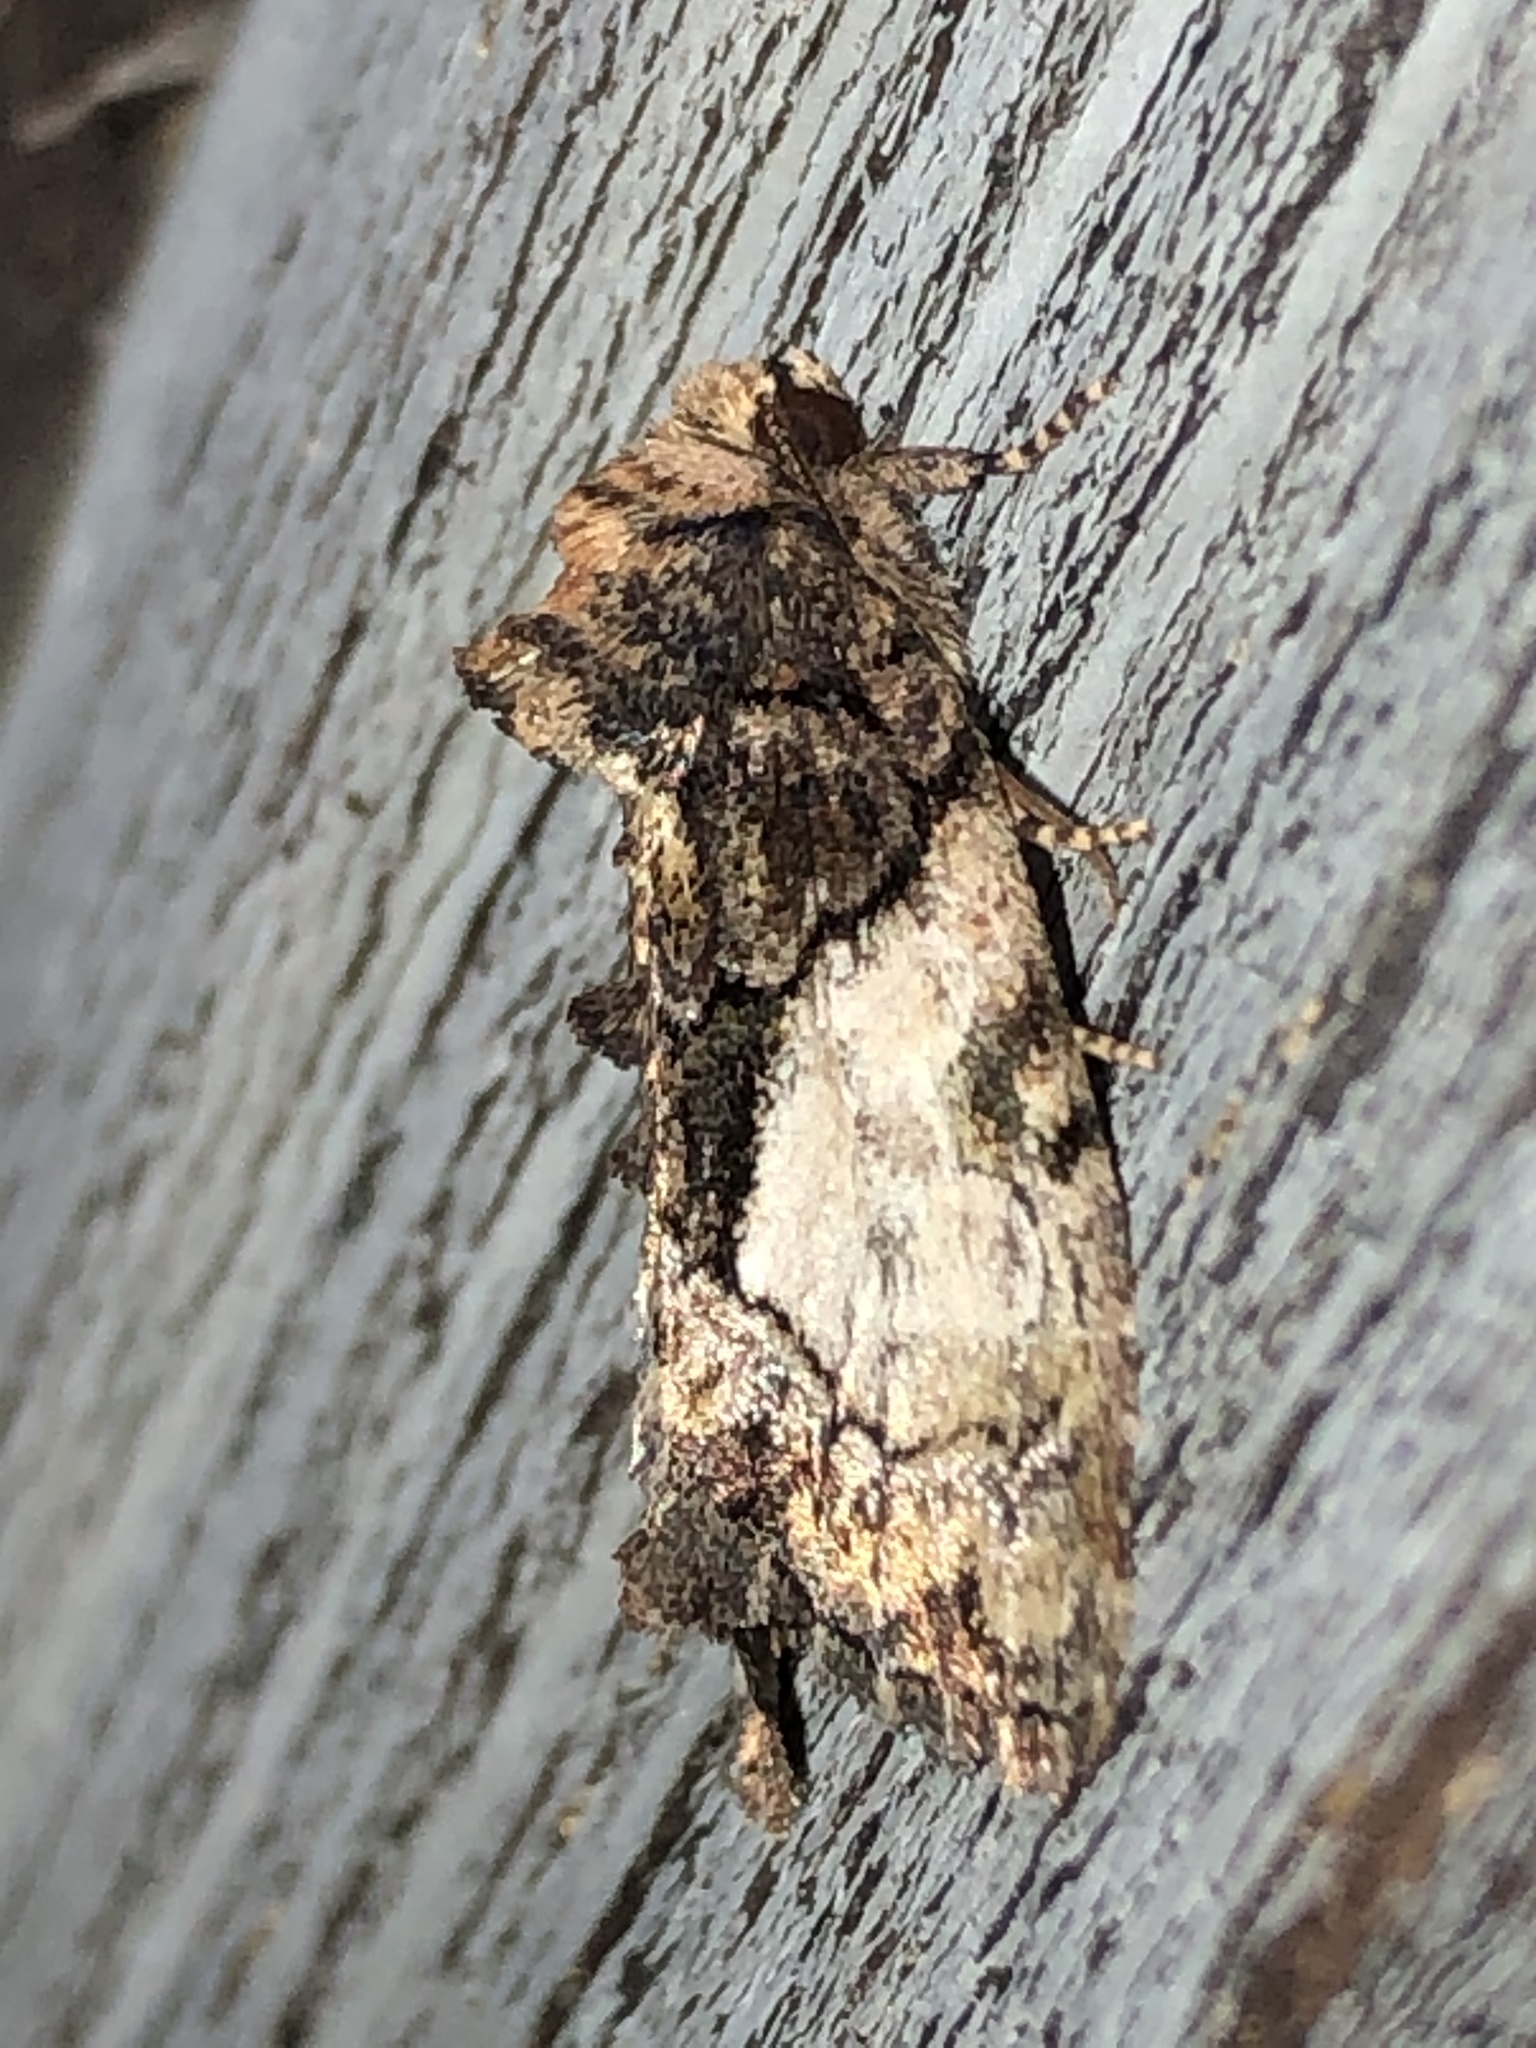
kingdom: Animalia
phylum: Arthropoda
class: Insecta
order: Lepidoptera
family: Noctuidae
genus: Chytonix
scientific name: Chytonix palliatricula
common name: Cloaked marvel
